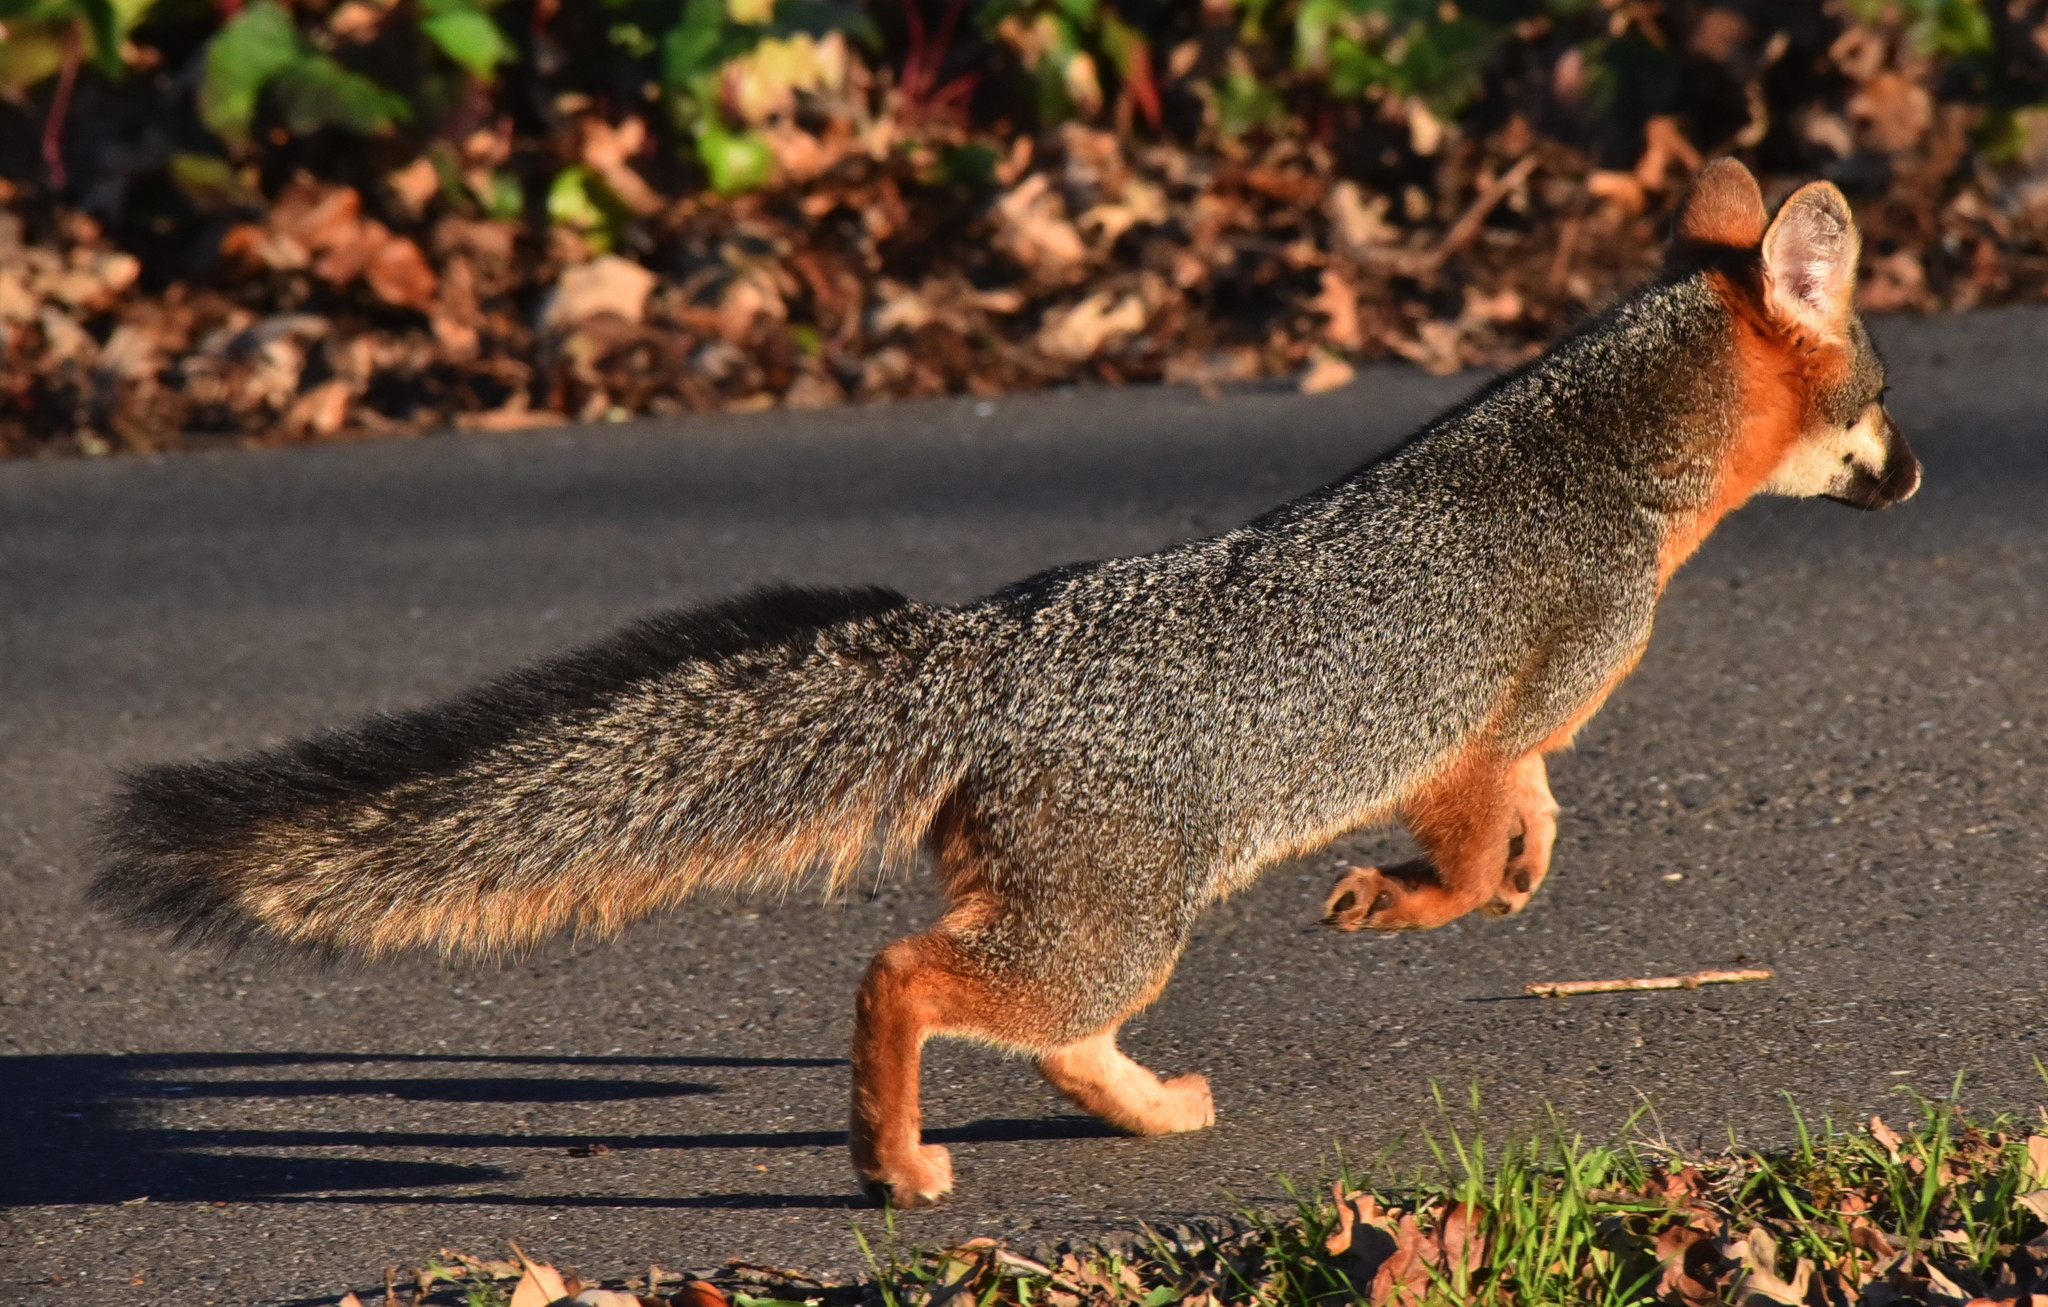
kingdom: Animalia
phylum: Chordata
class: Mammalia
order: Carnivora
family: Canidae
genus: Urocyon
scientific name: Urocyon cinereoargenteus
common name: Gray fox
